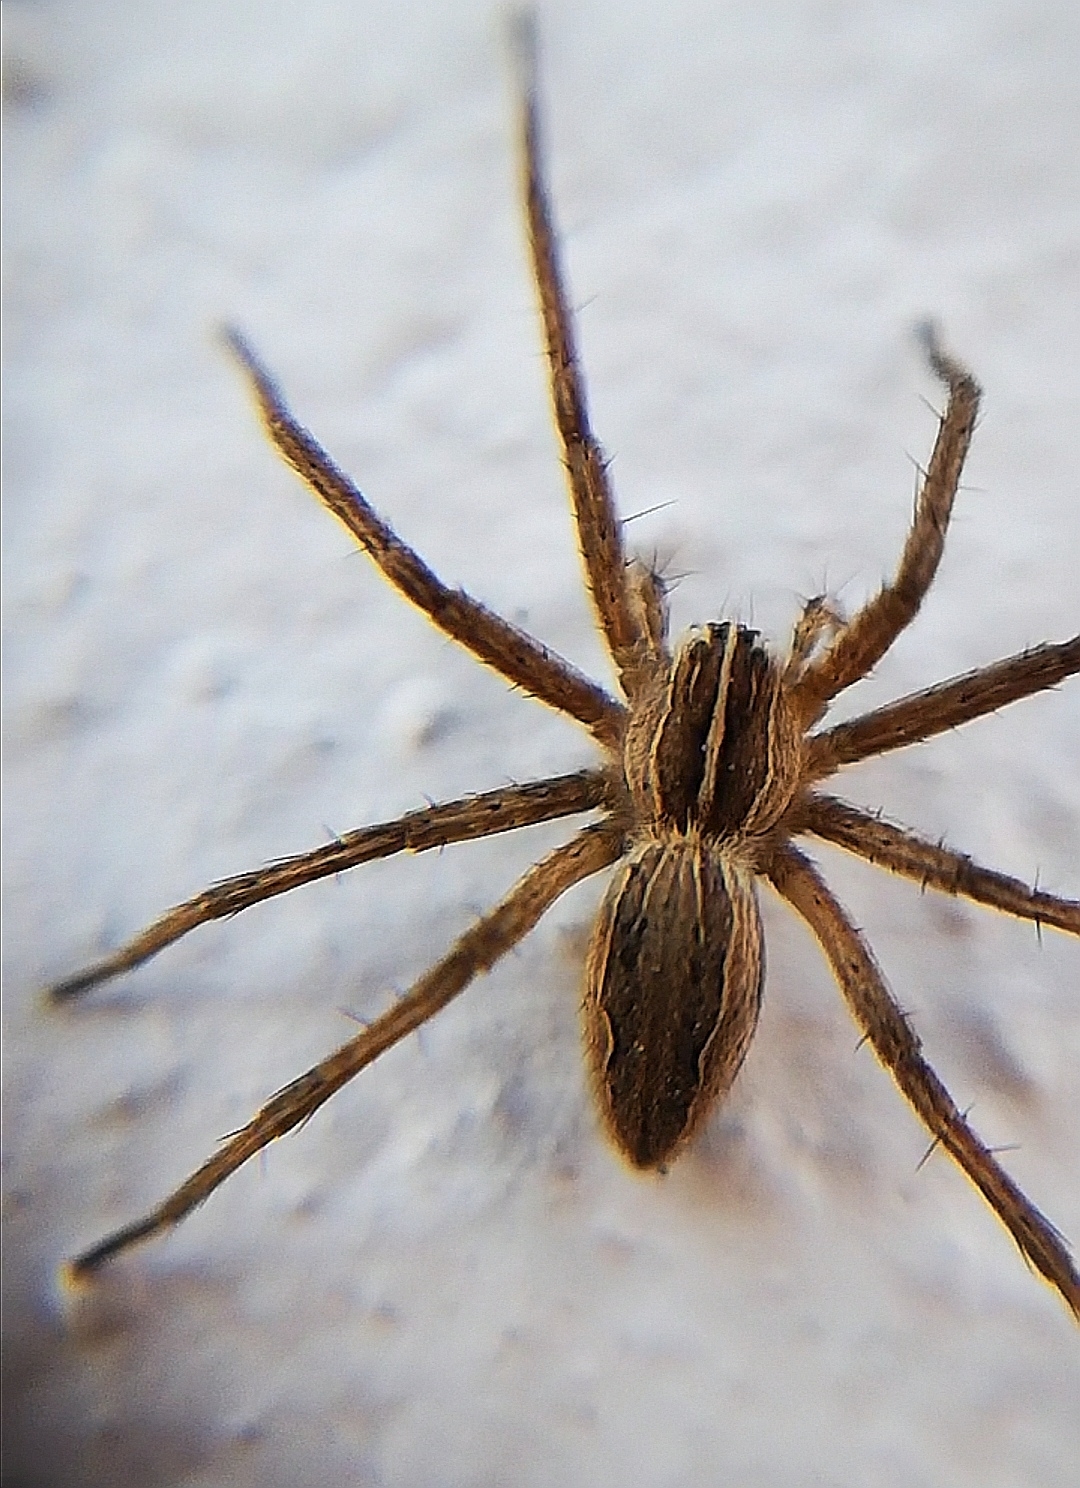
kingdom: Animalia
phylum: Arthropoda
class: Arachnida
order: Araneae
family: Pisauridae
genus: Pisaura
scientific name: Pisaura mirabilis
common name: Tent spider
